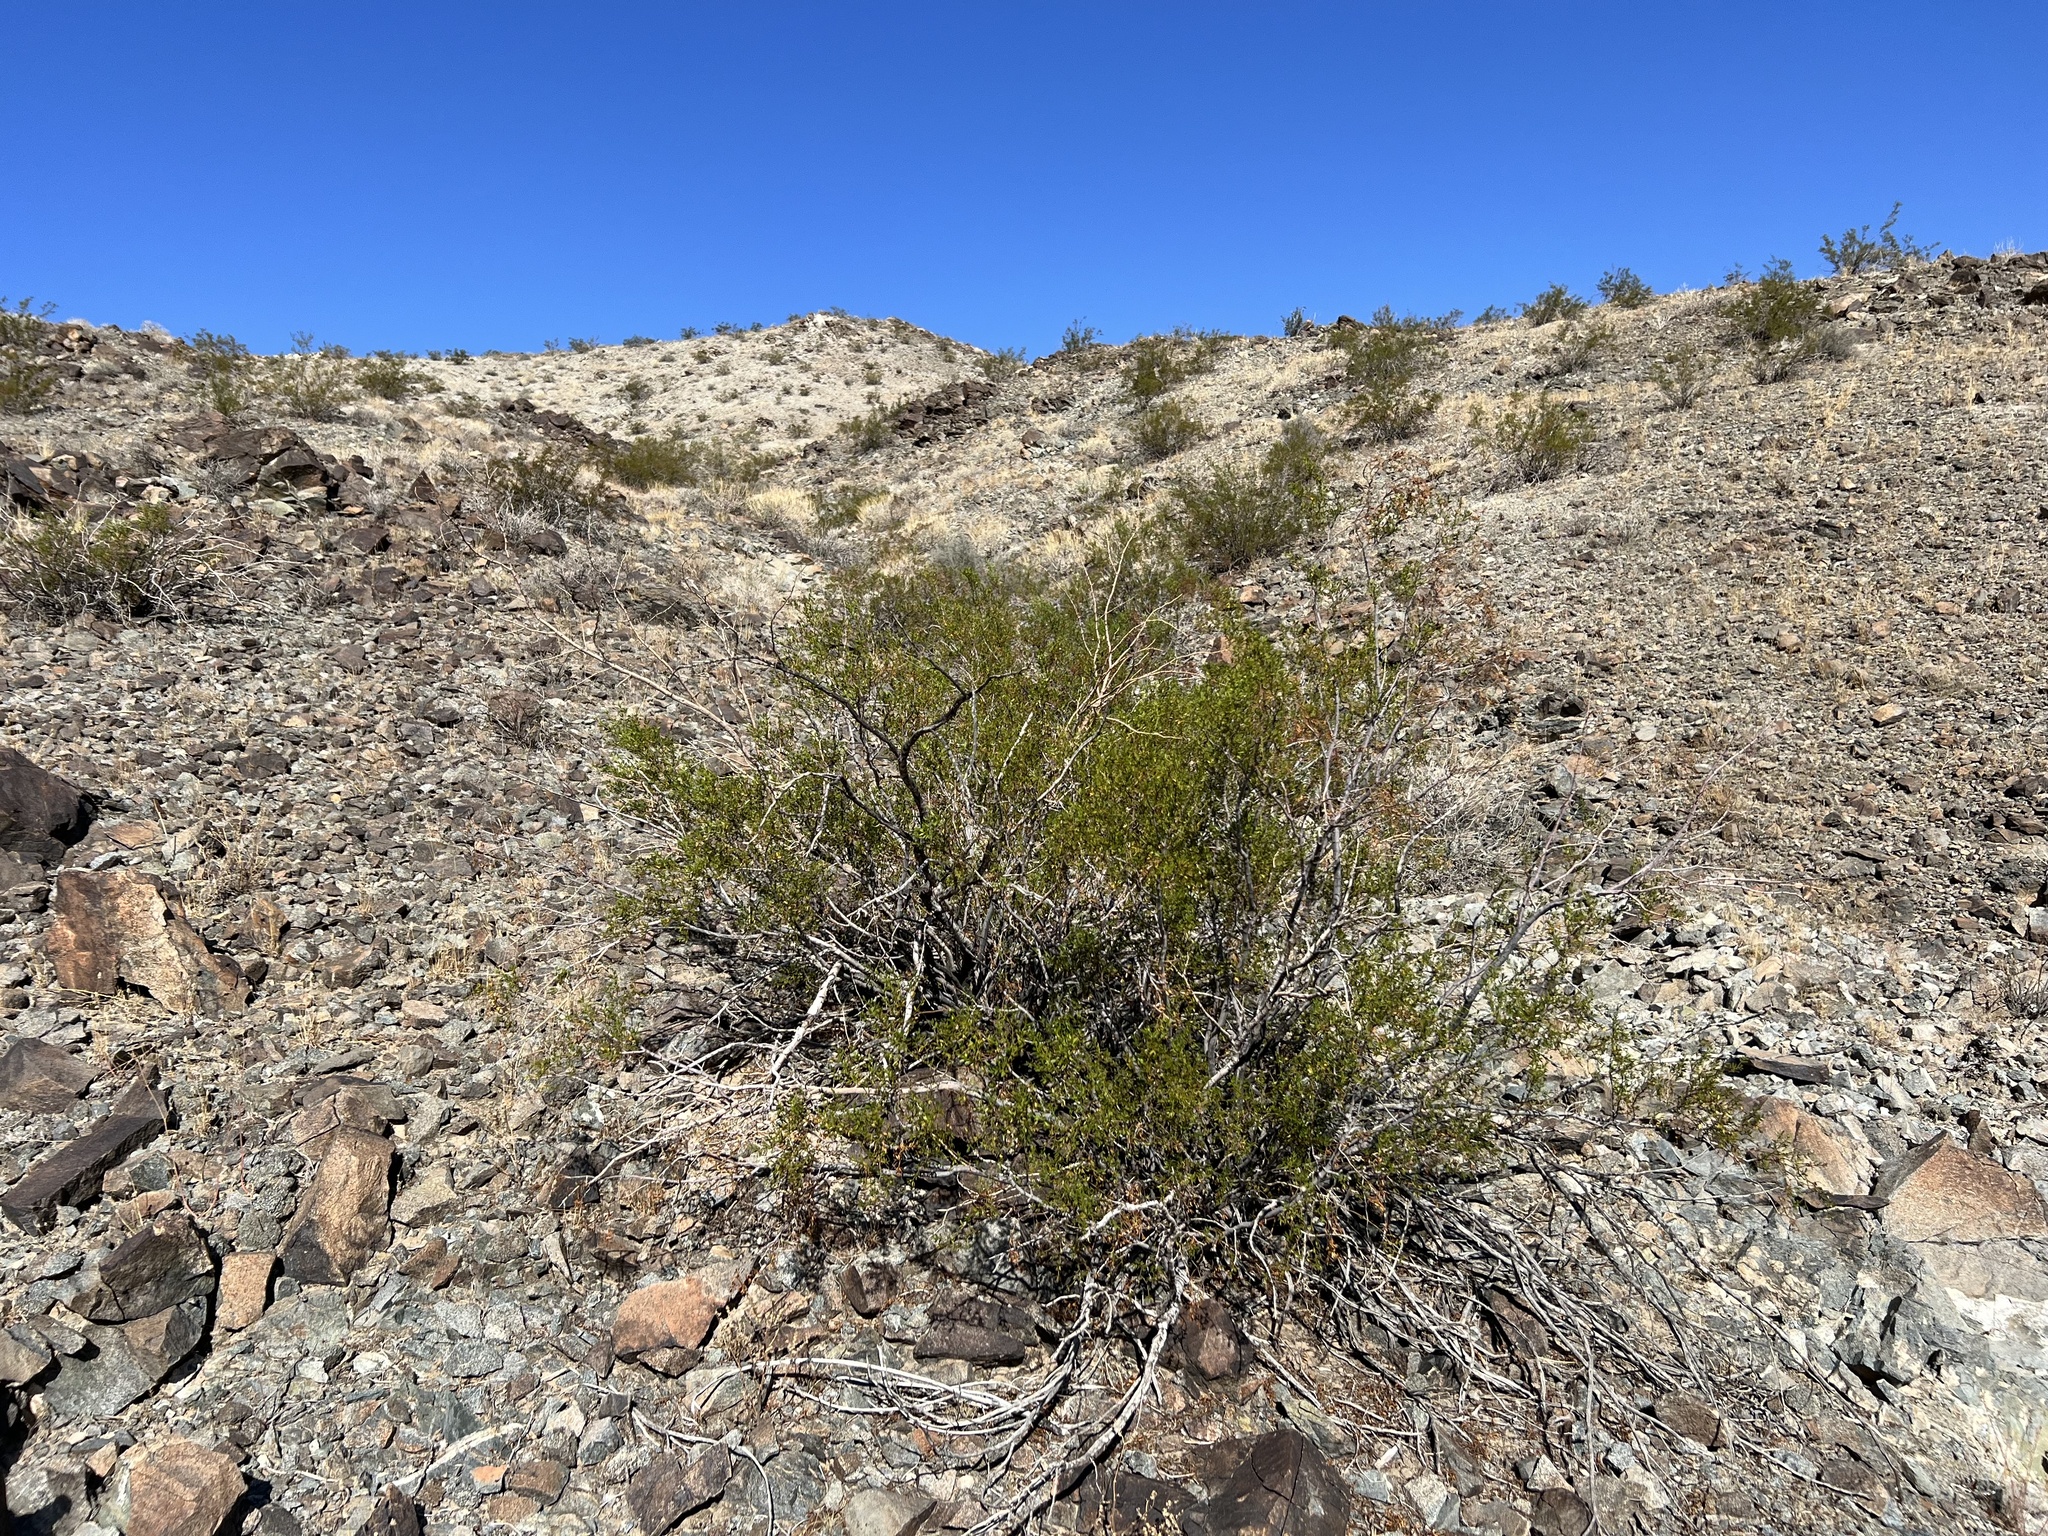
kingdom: Plantae
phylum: Tracheophyta
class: Magnoliopsida
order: Zygophyllales
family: Zygophyllaceae
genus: Larrea
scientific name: Larrea tridentata
